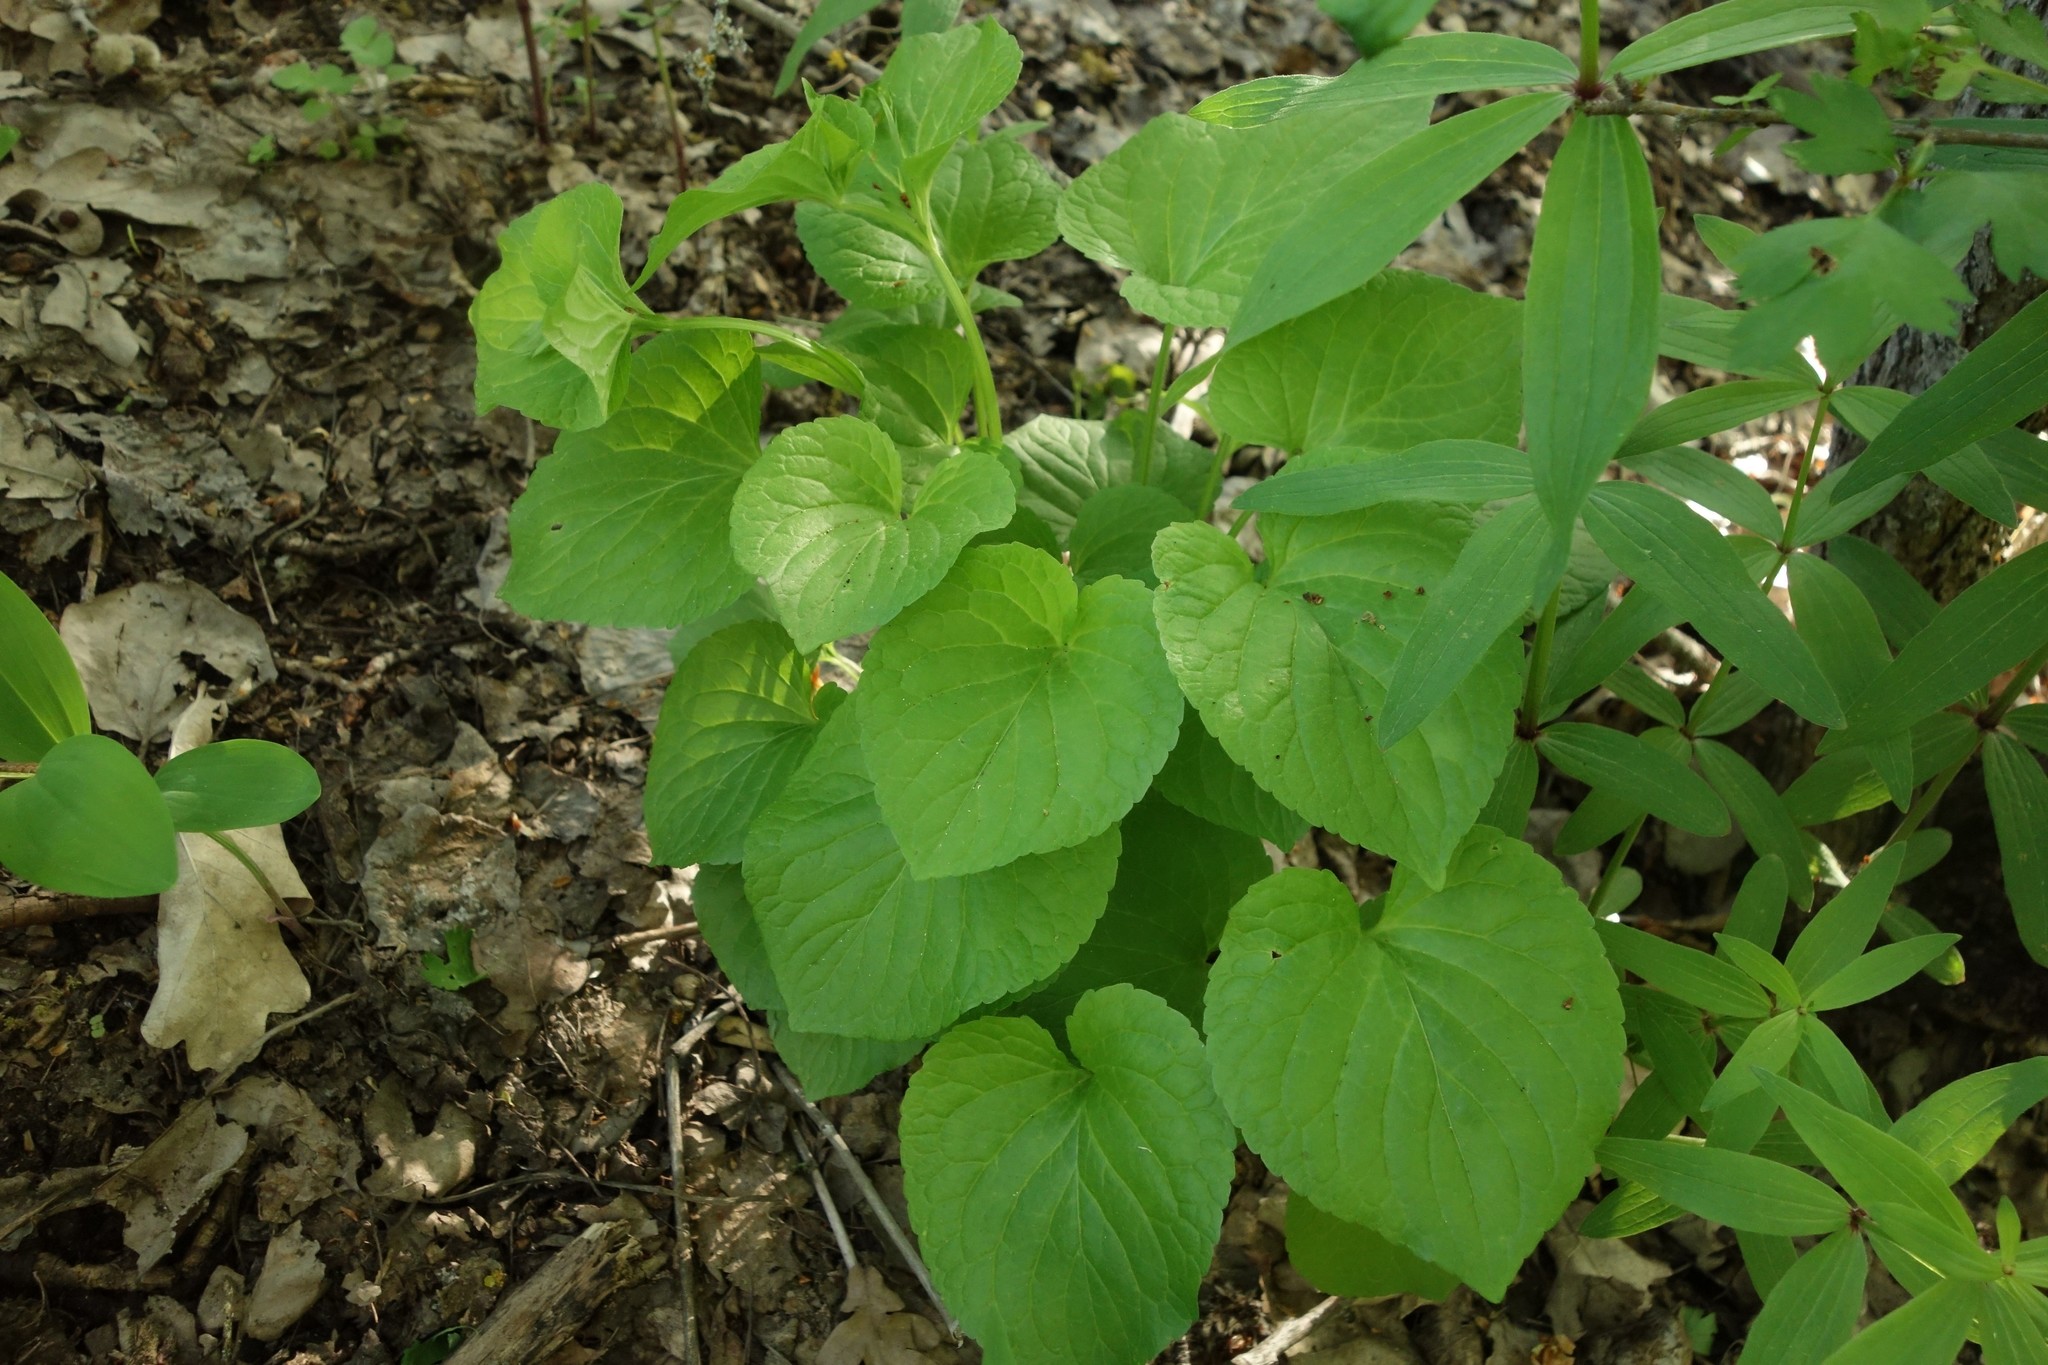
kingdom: Plantae
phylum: Tracheophyta
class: Magnoliopsida
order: Malpighiales
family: Violaceae
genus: Viola
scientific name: Viola mirabilis
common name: Wonder violet
